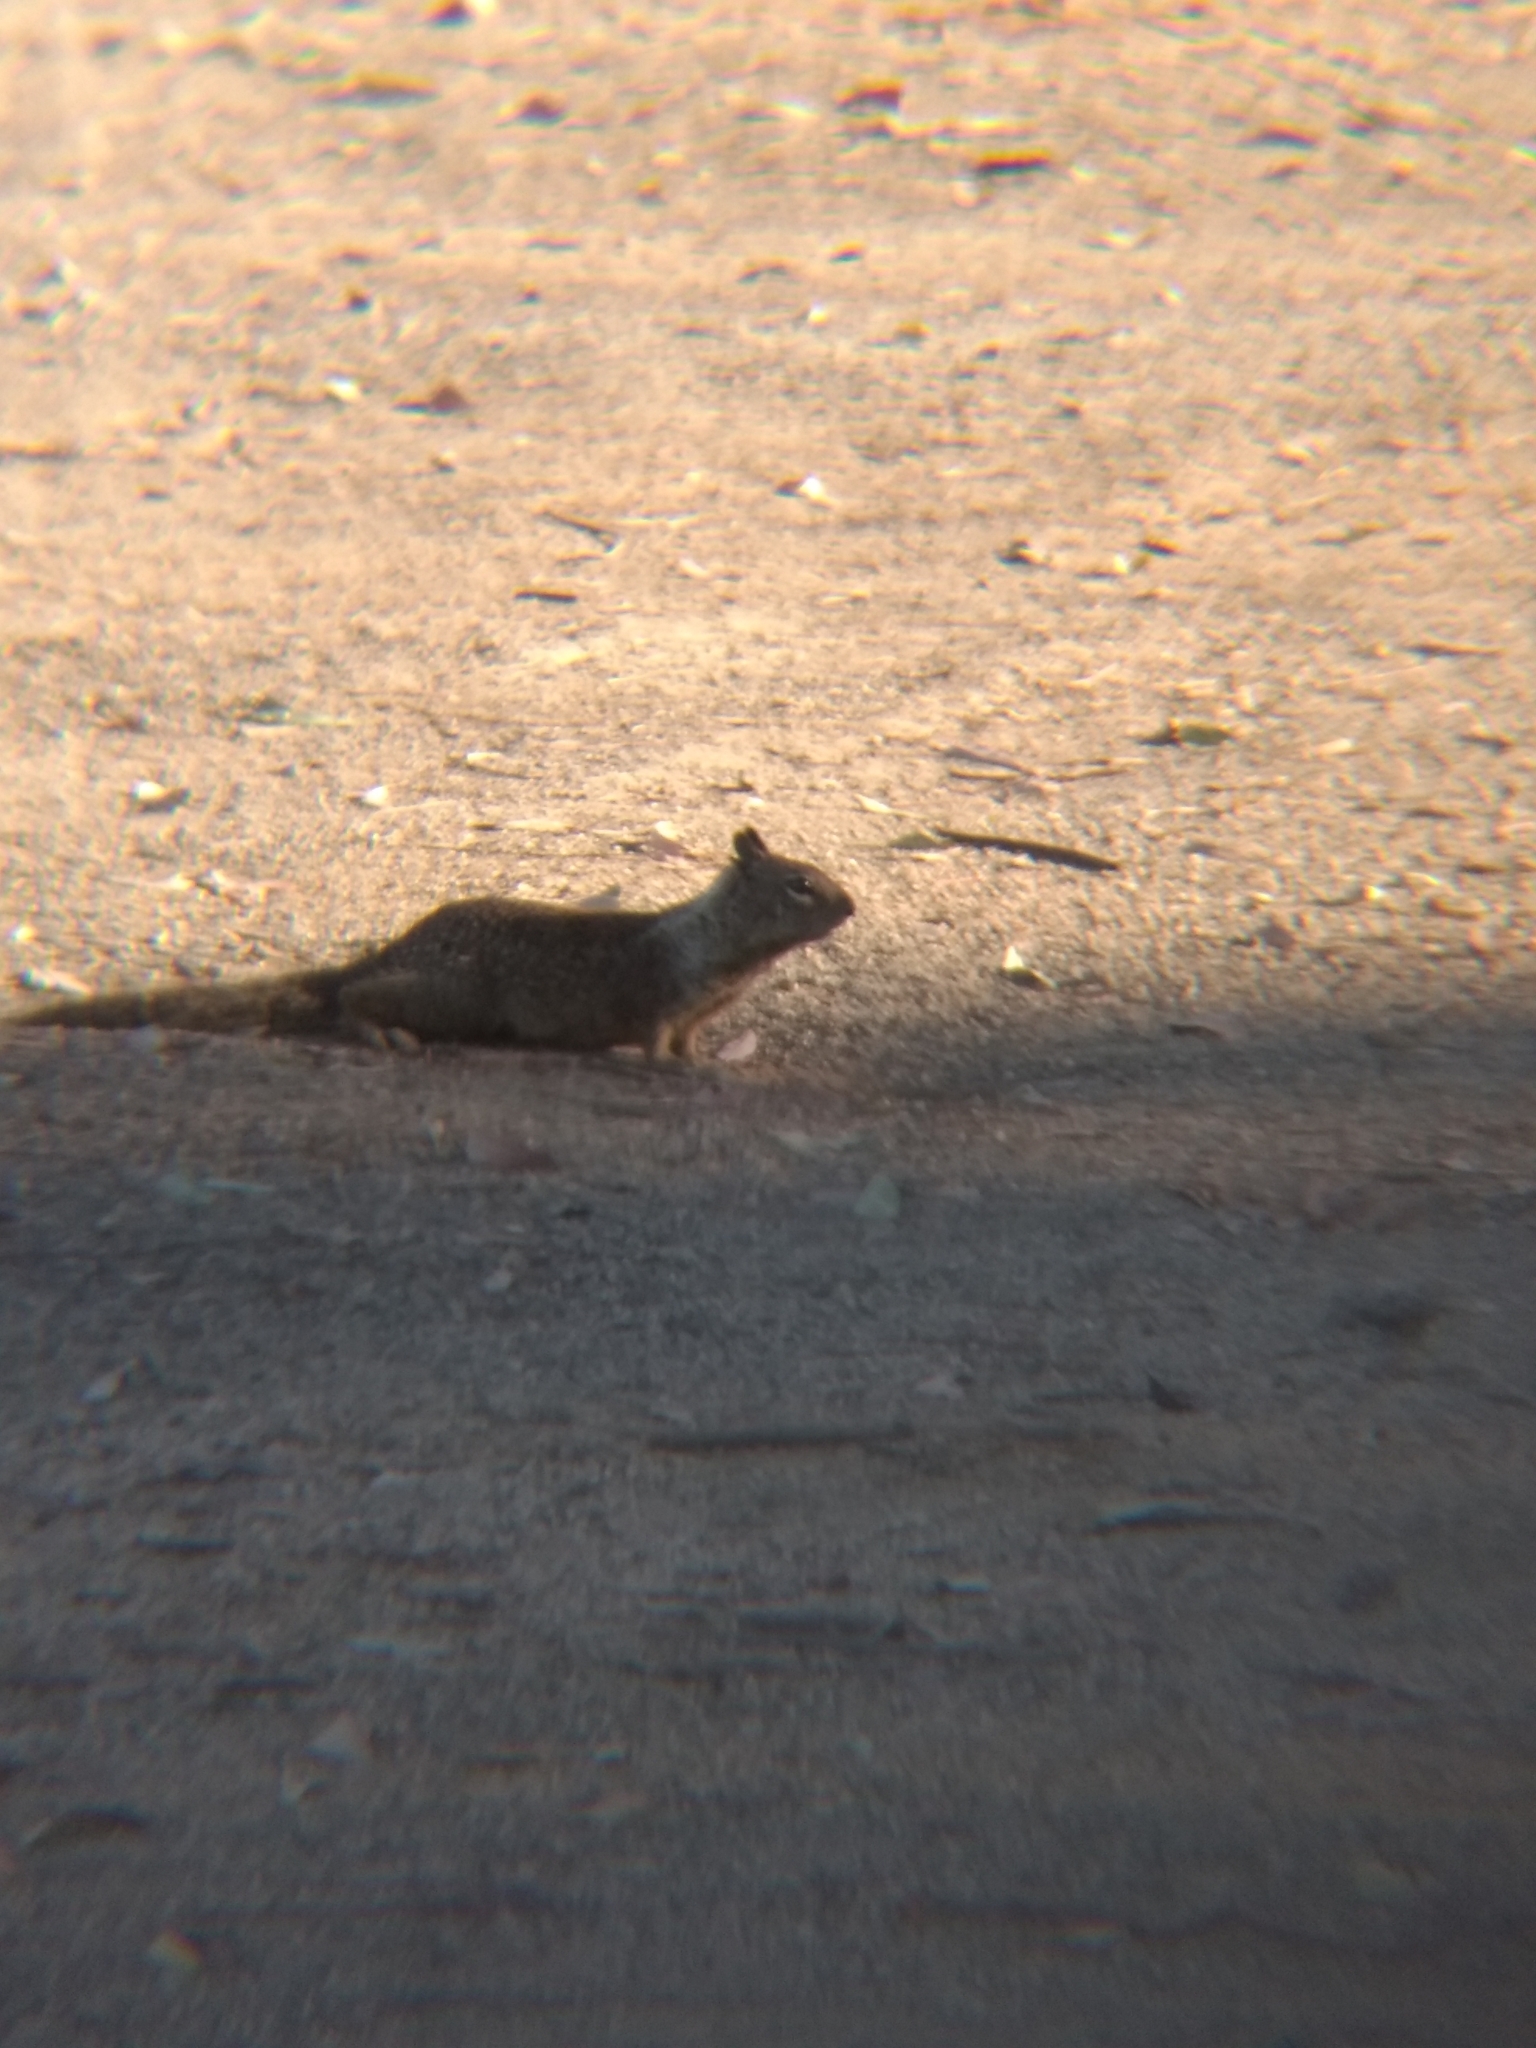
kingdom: Animalia
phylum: Chordata
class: Mammalia
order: Rodentia
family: Sciuridae
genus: Otospermophilus
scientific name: Otospermophilus beecheyi
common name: California ground squirrel
